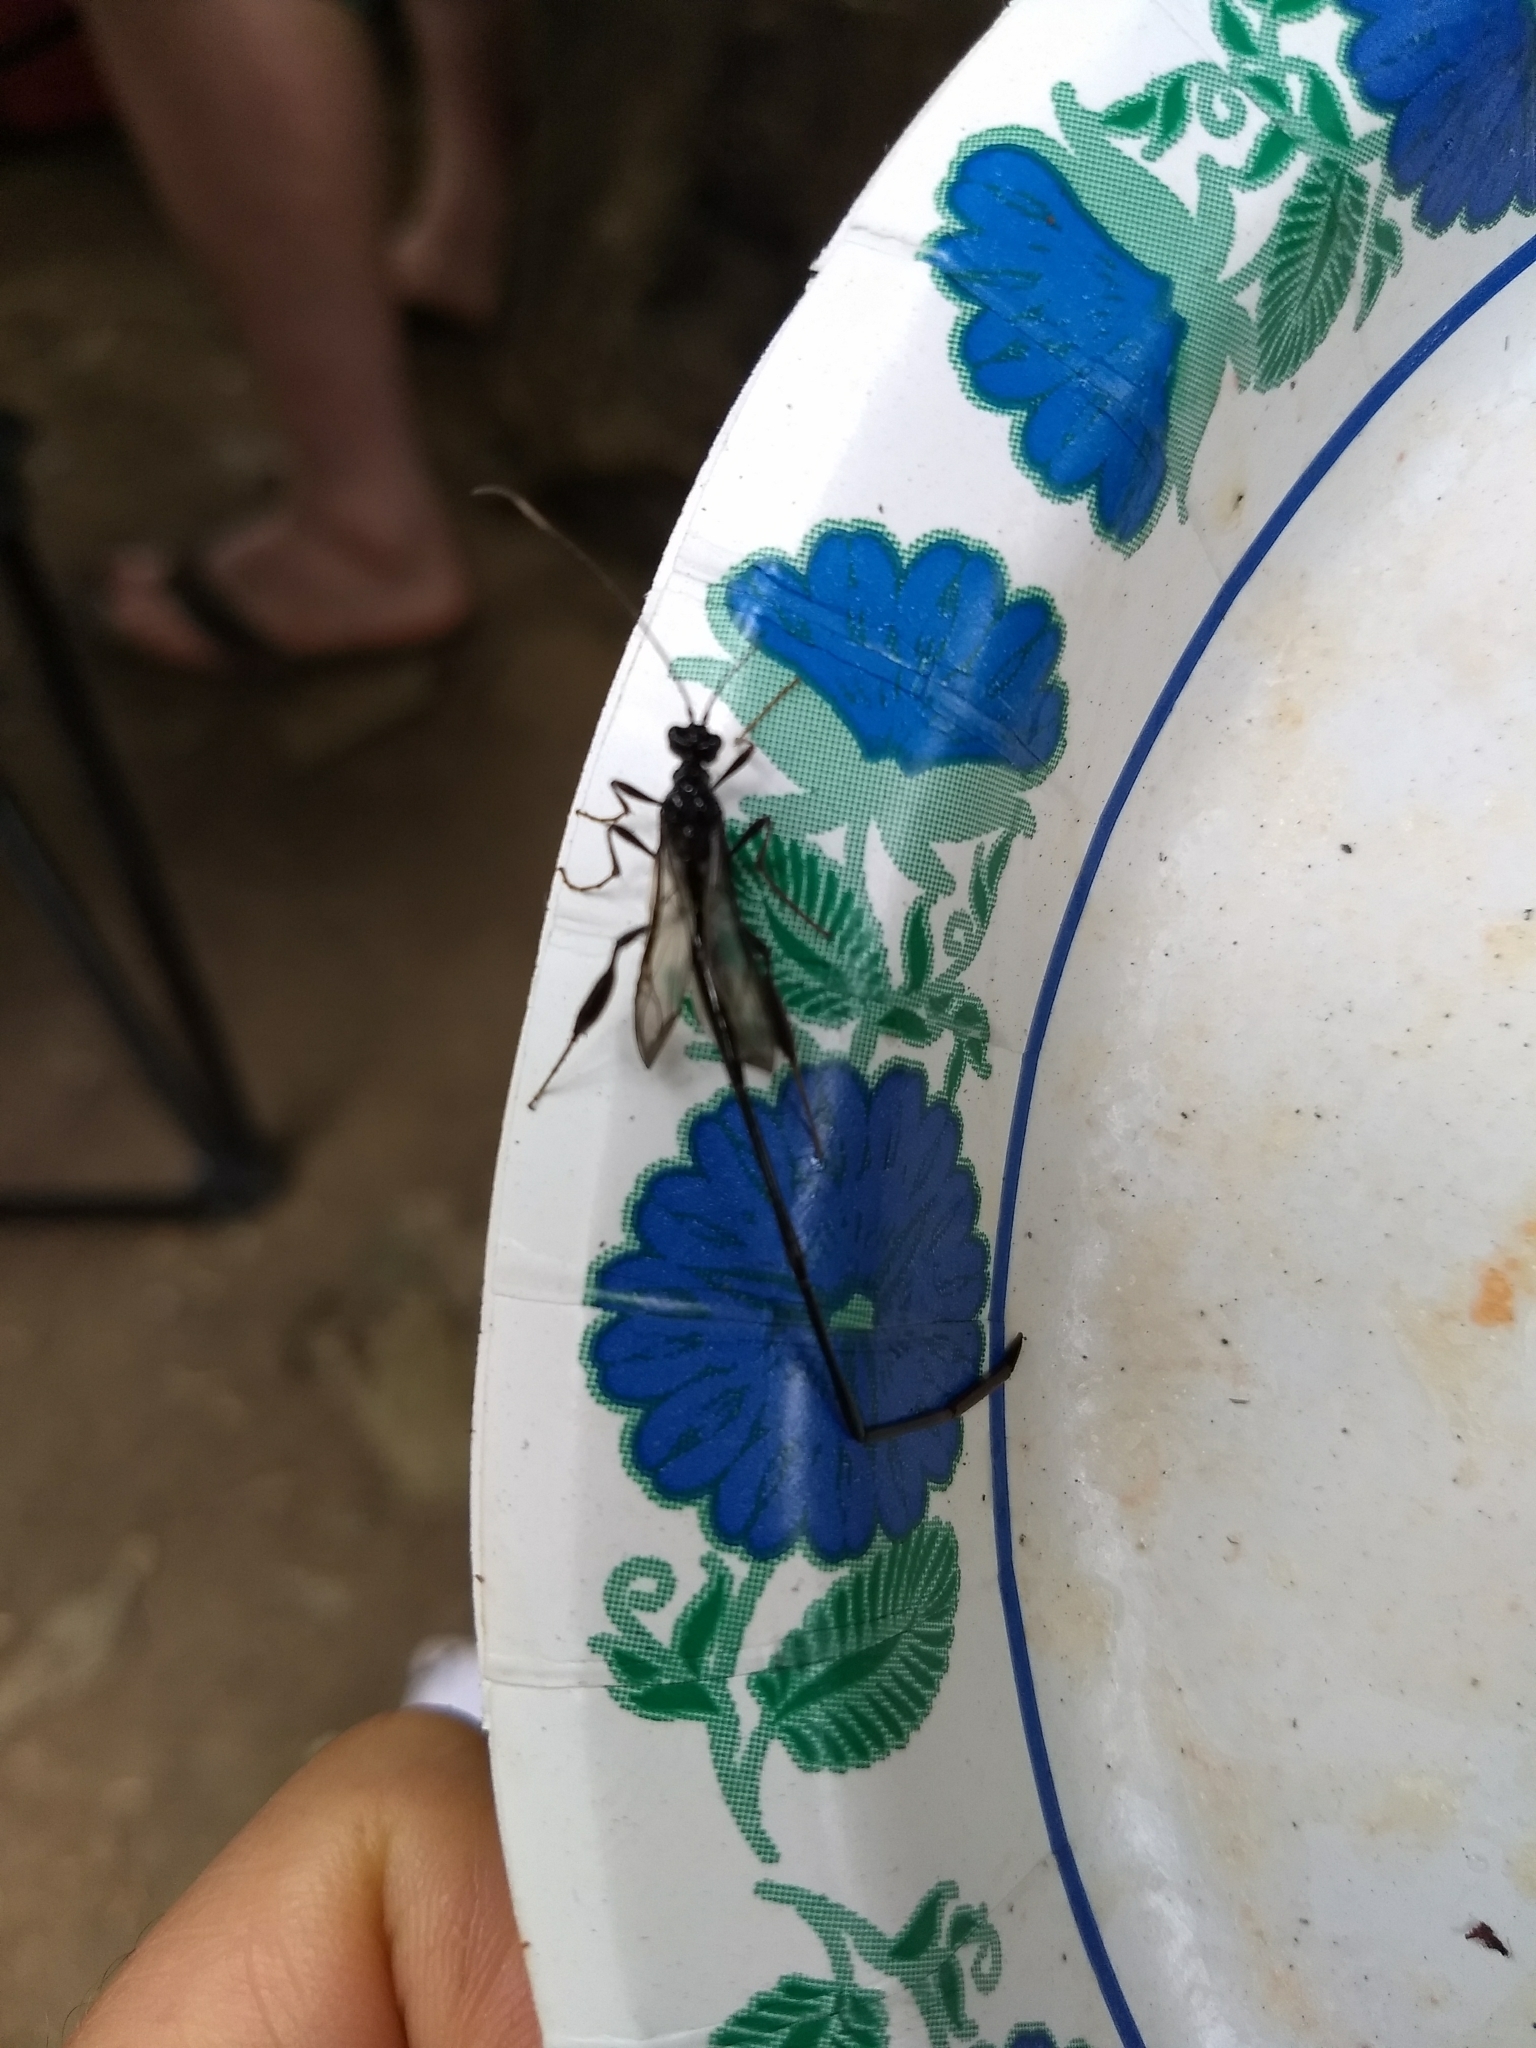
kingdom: Animalia
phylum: Arthropoda
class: Insecta
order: Hymenoptera
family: Pelecinidae
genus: Pelecinus
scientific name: Pelecinus polyturator
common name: American pelecinid wasp
